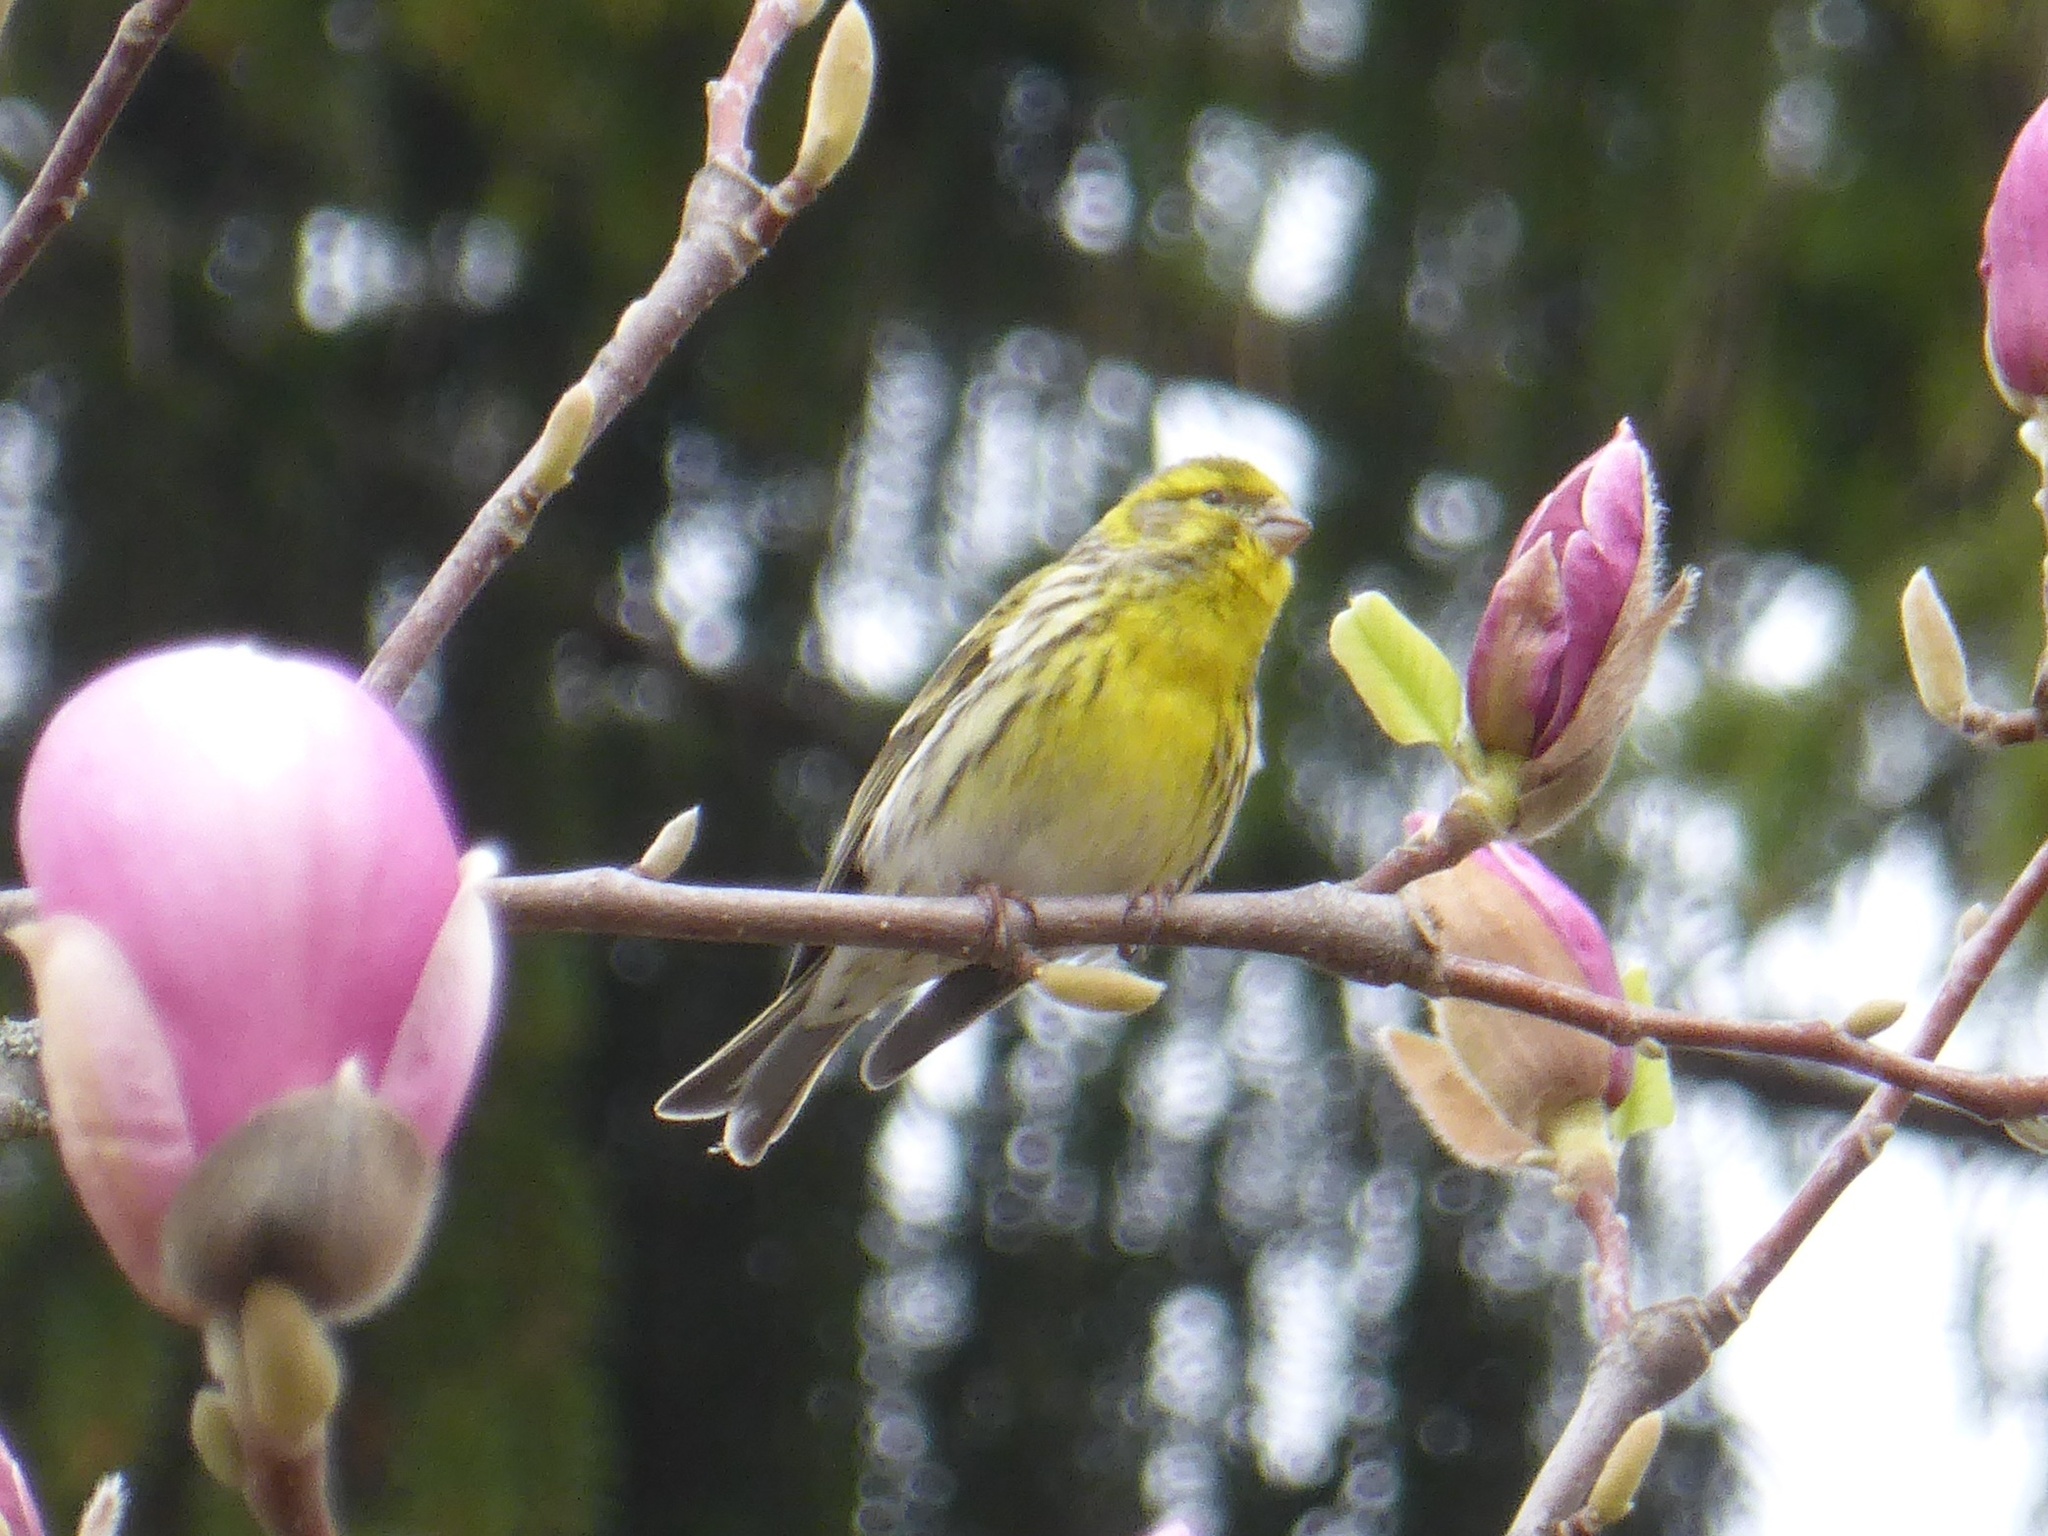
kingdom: Animalia
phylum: Chordata
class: Aves
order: Passeriformes
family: Fringillidae
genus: Serinus
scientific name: Serinus serinus
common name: European serin
